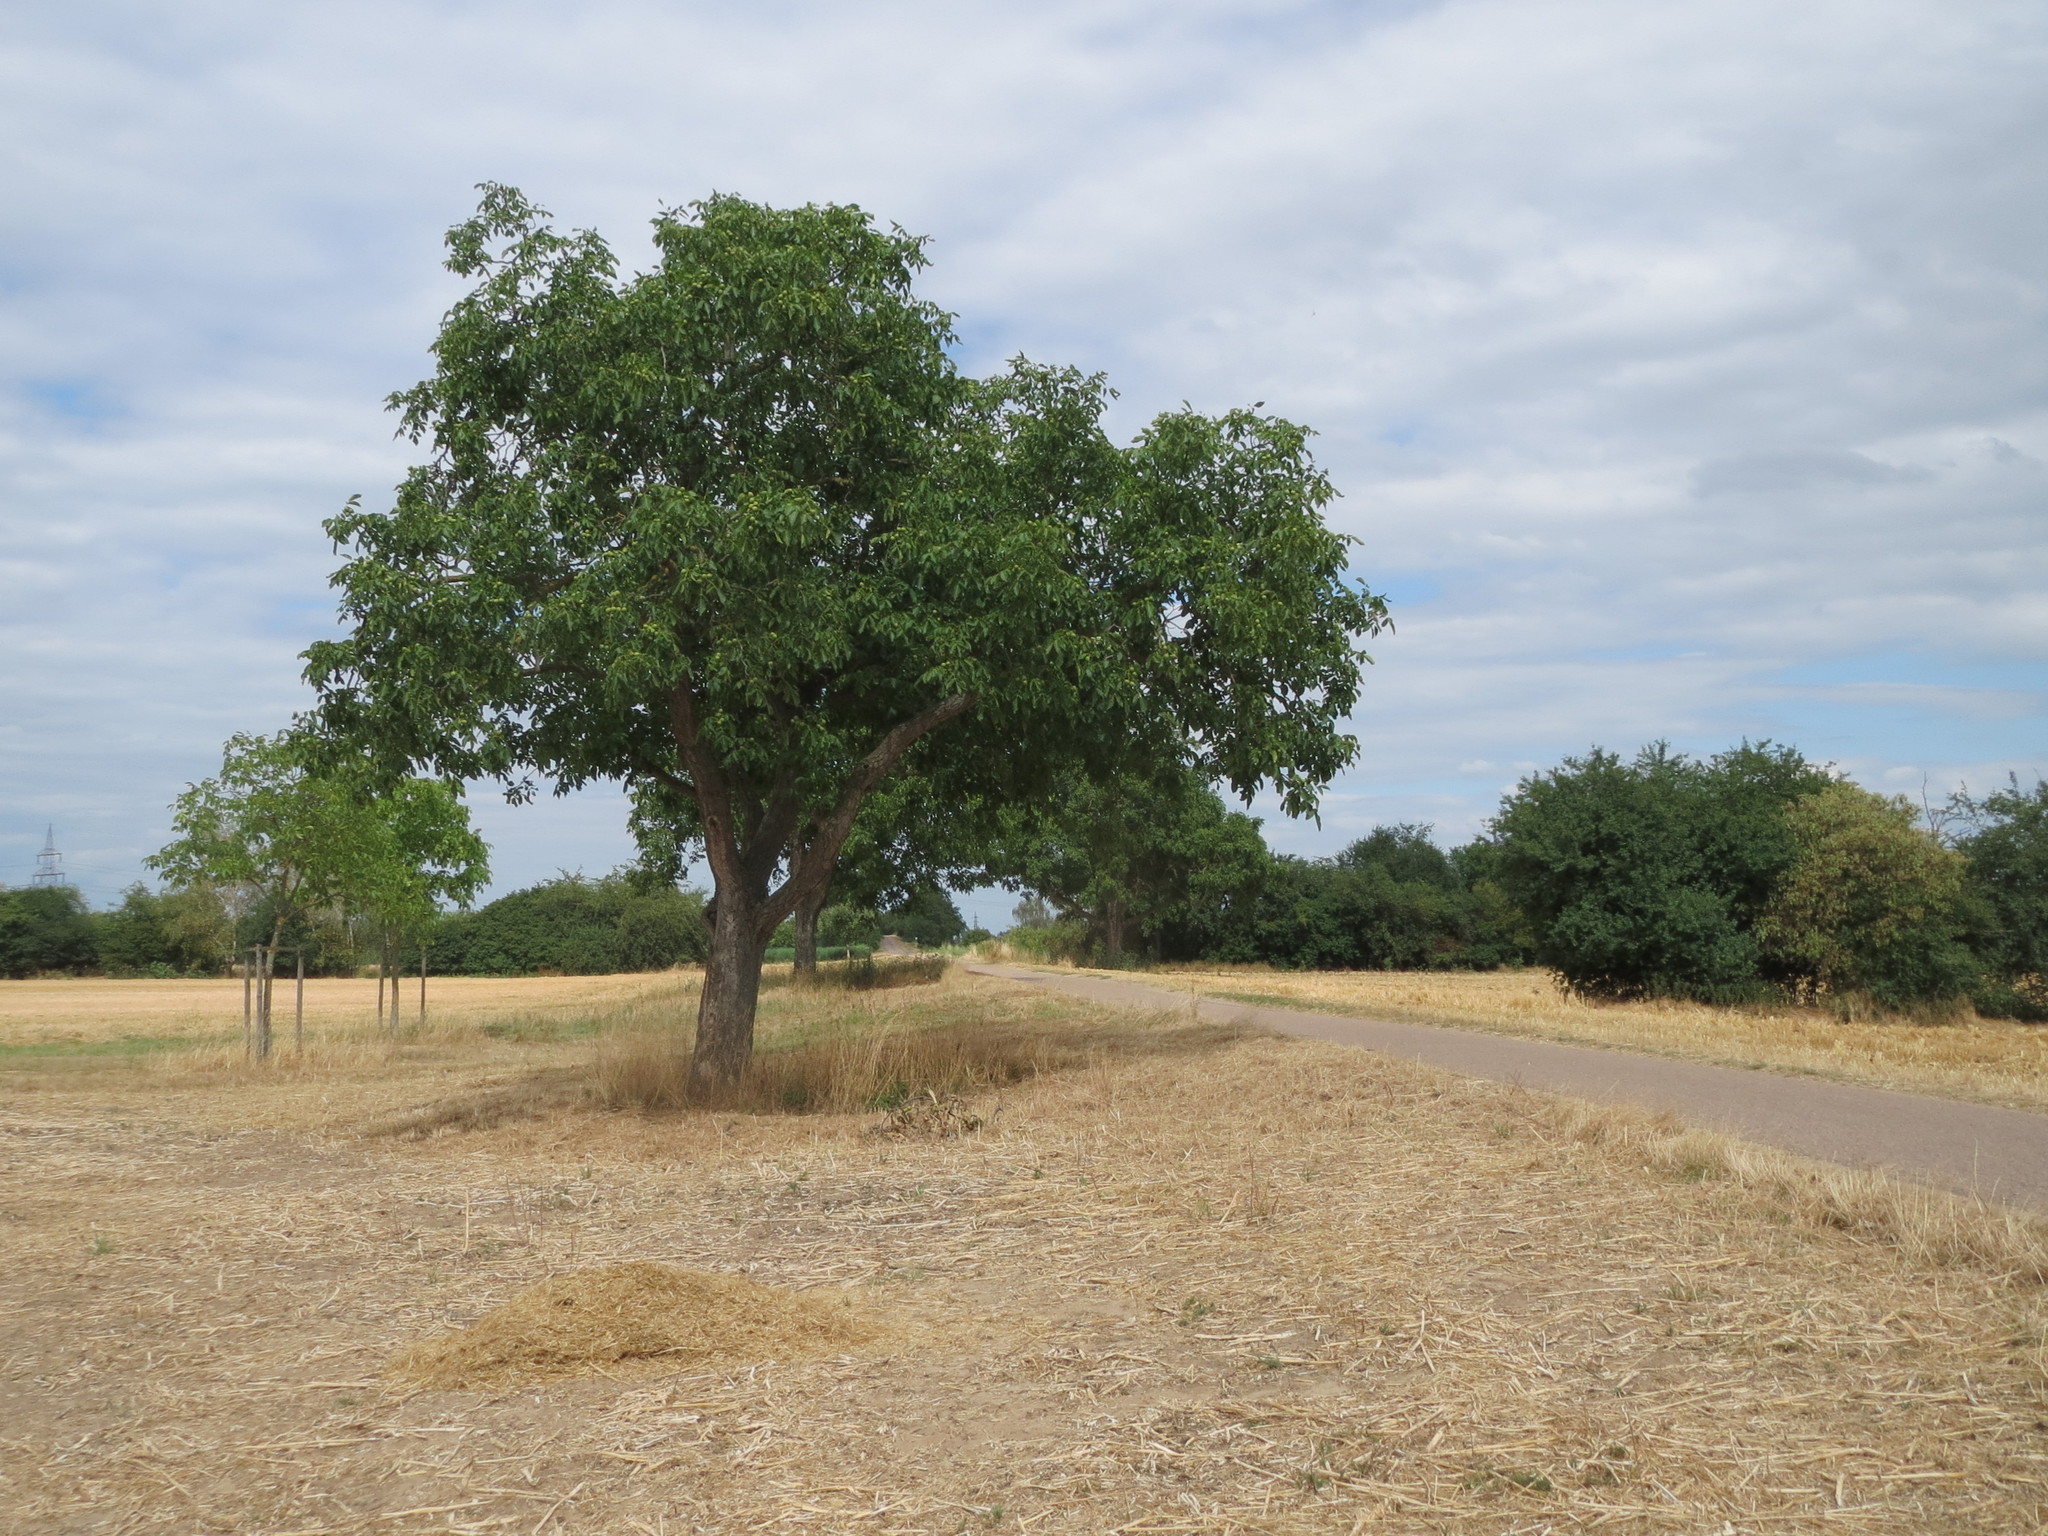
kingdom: Plantae
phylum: Tracheophyta
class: Magnoliopsida
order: Fagales
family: Juglandaceae
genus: Juglans
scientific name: Juglans regia
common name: Walnut
